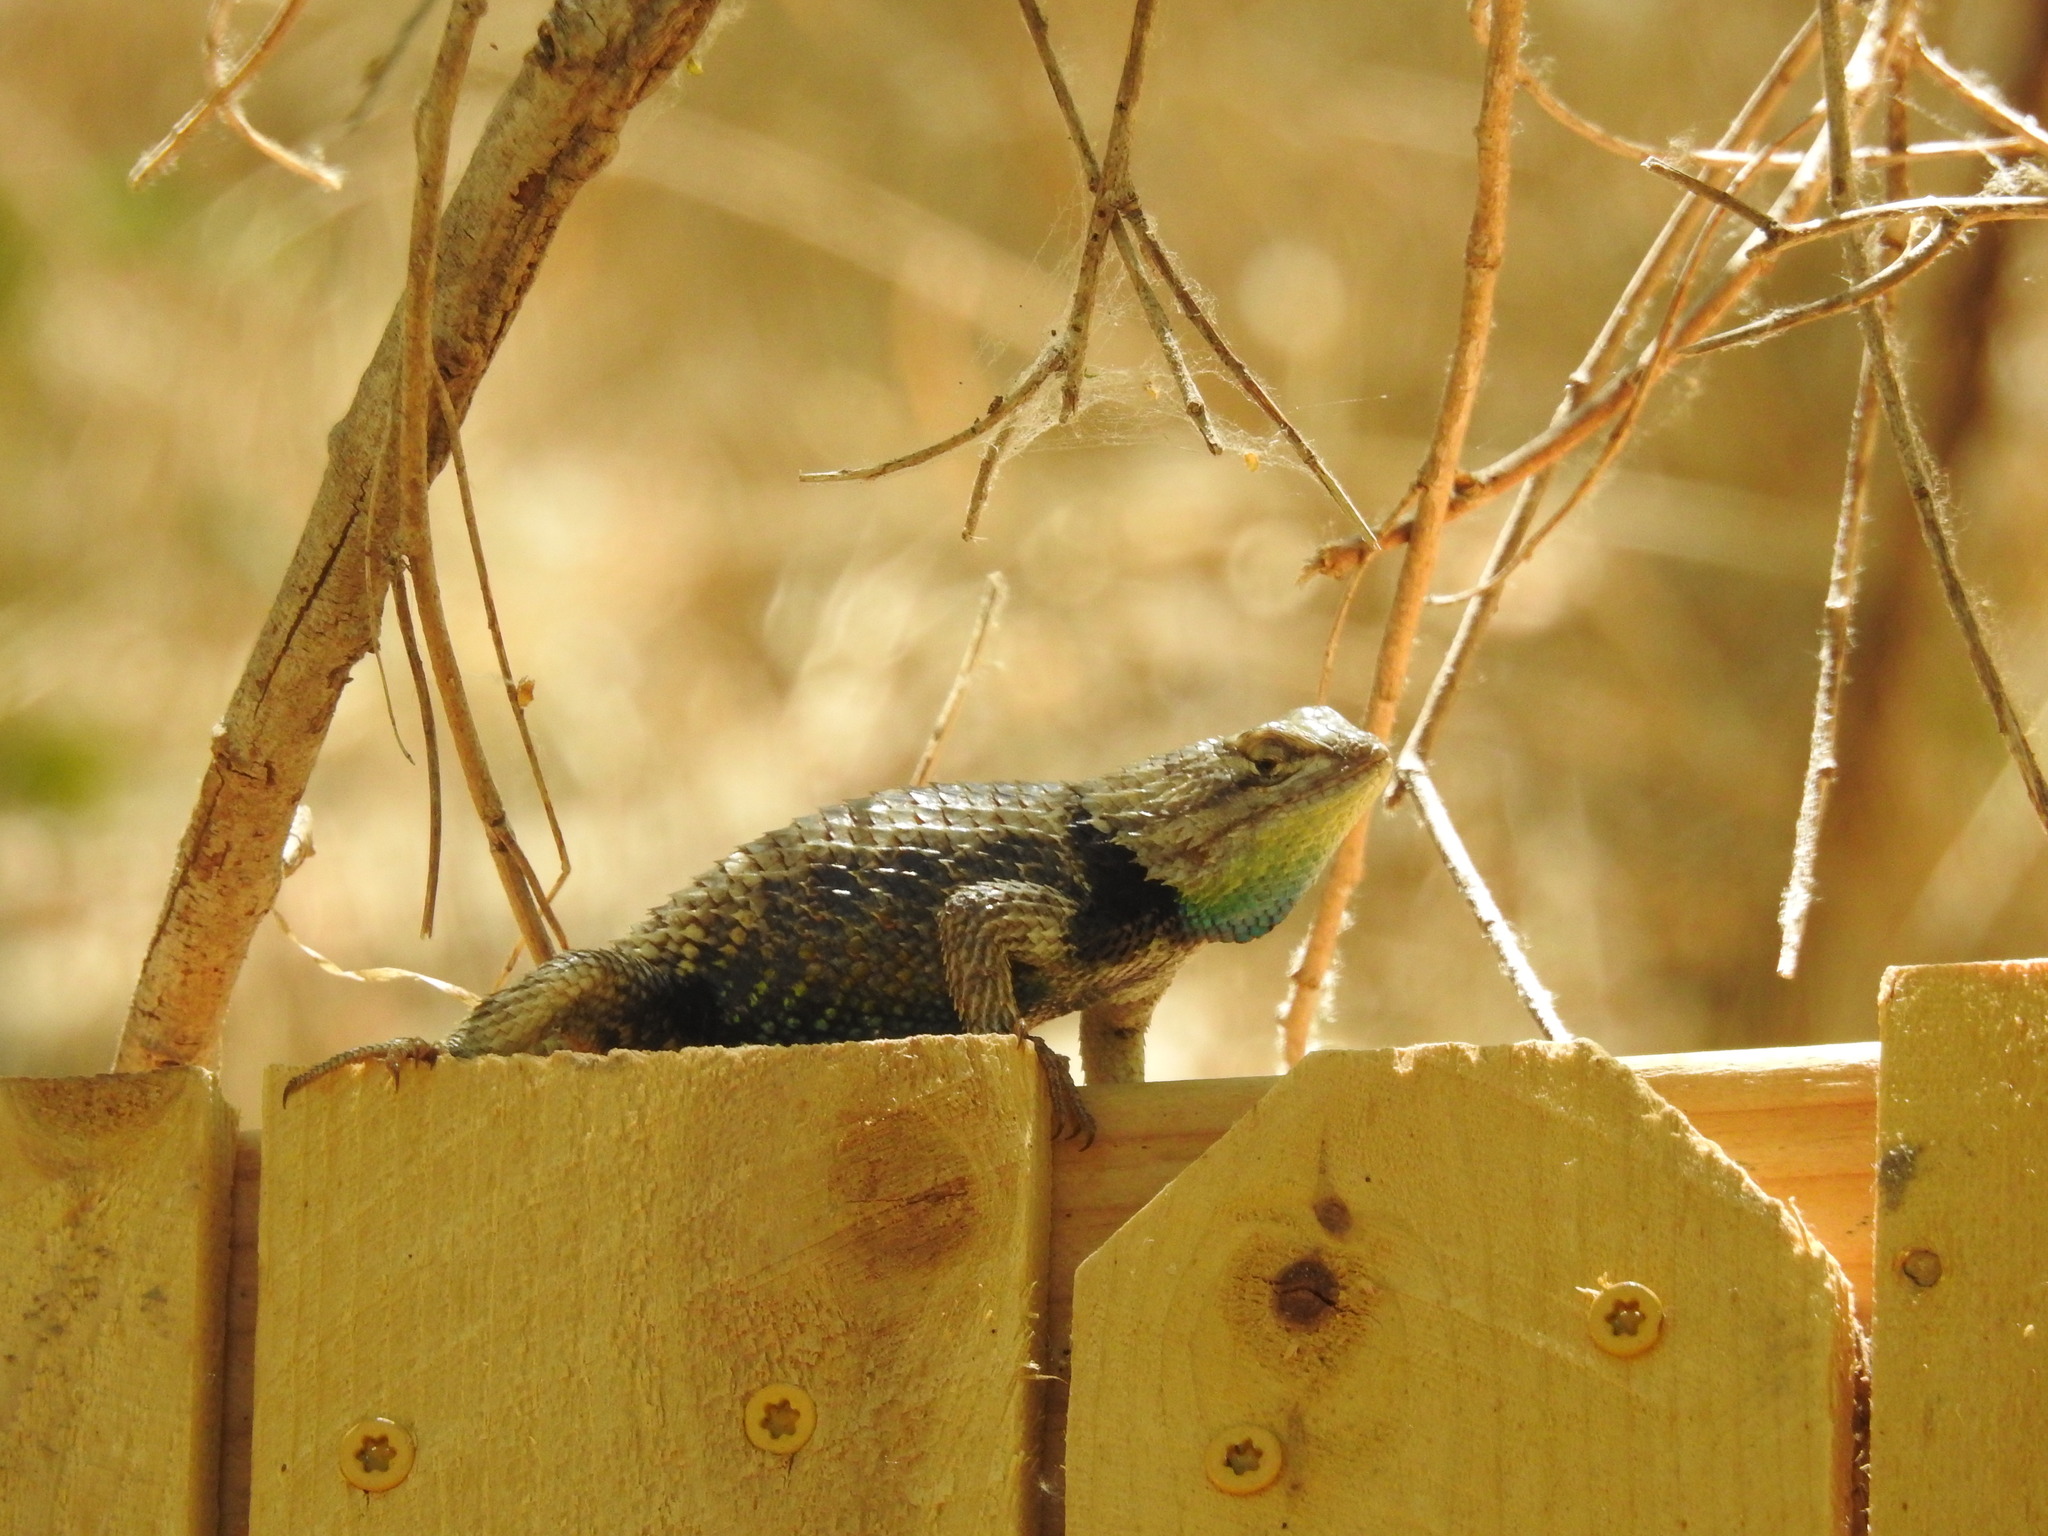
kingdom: Animalia
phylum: Chordata
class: Squamata
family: Phrynosomatidae
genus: Sceloporus
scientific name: Sceloporus magister
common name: Desert spiny lizard
